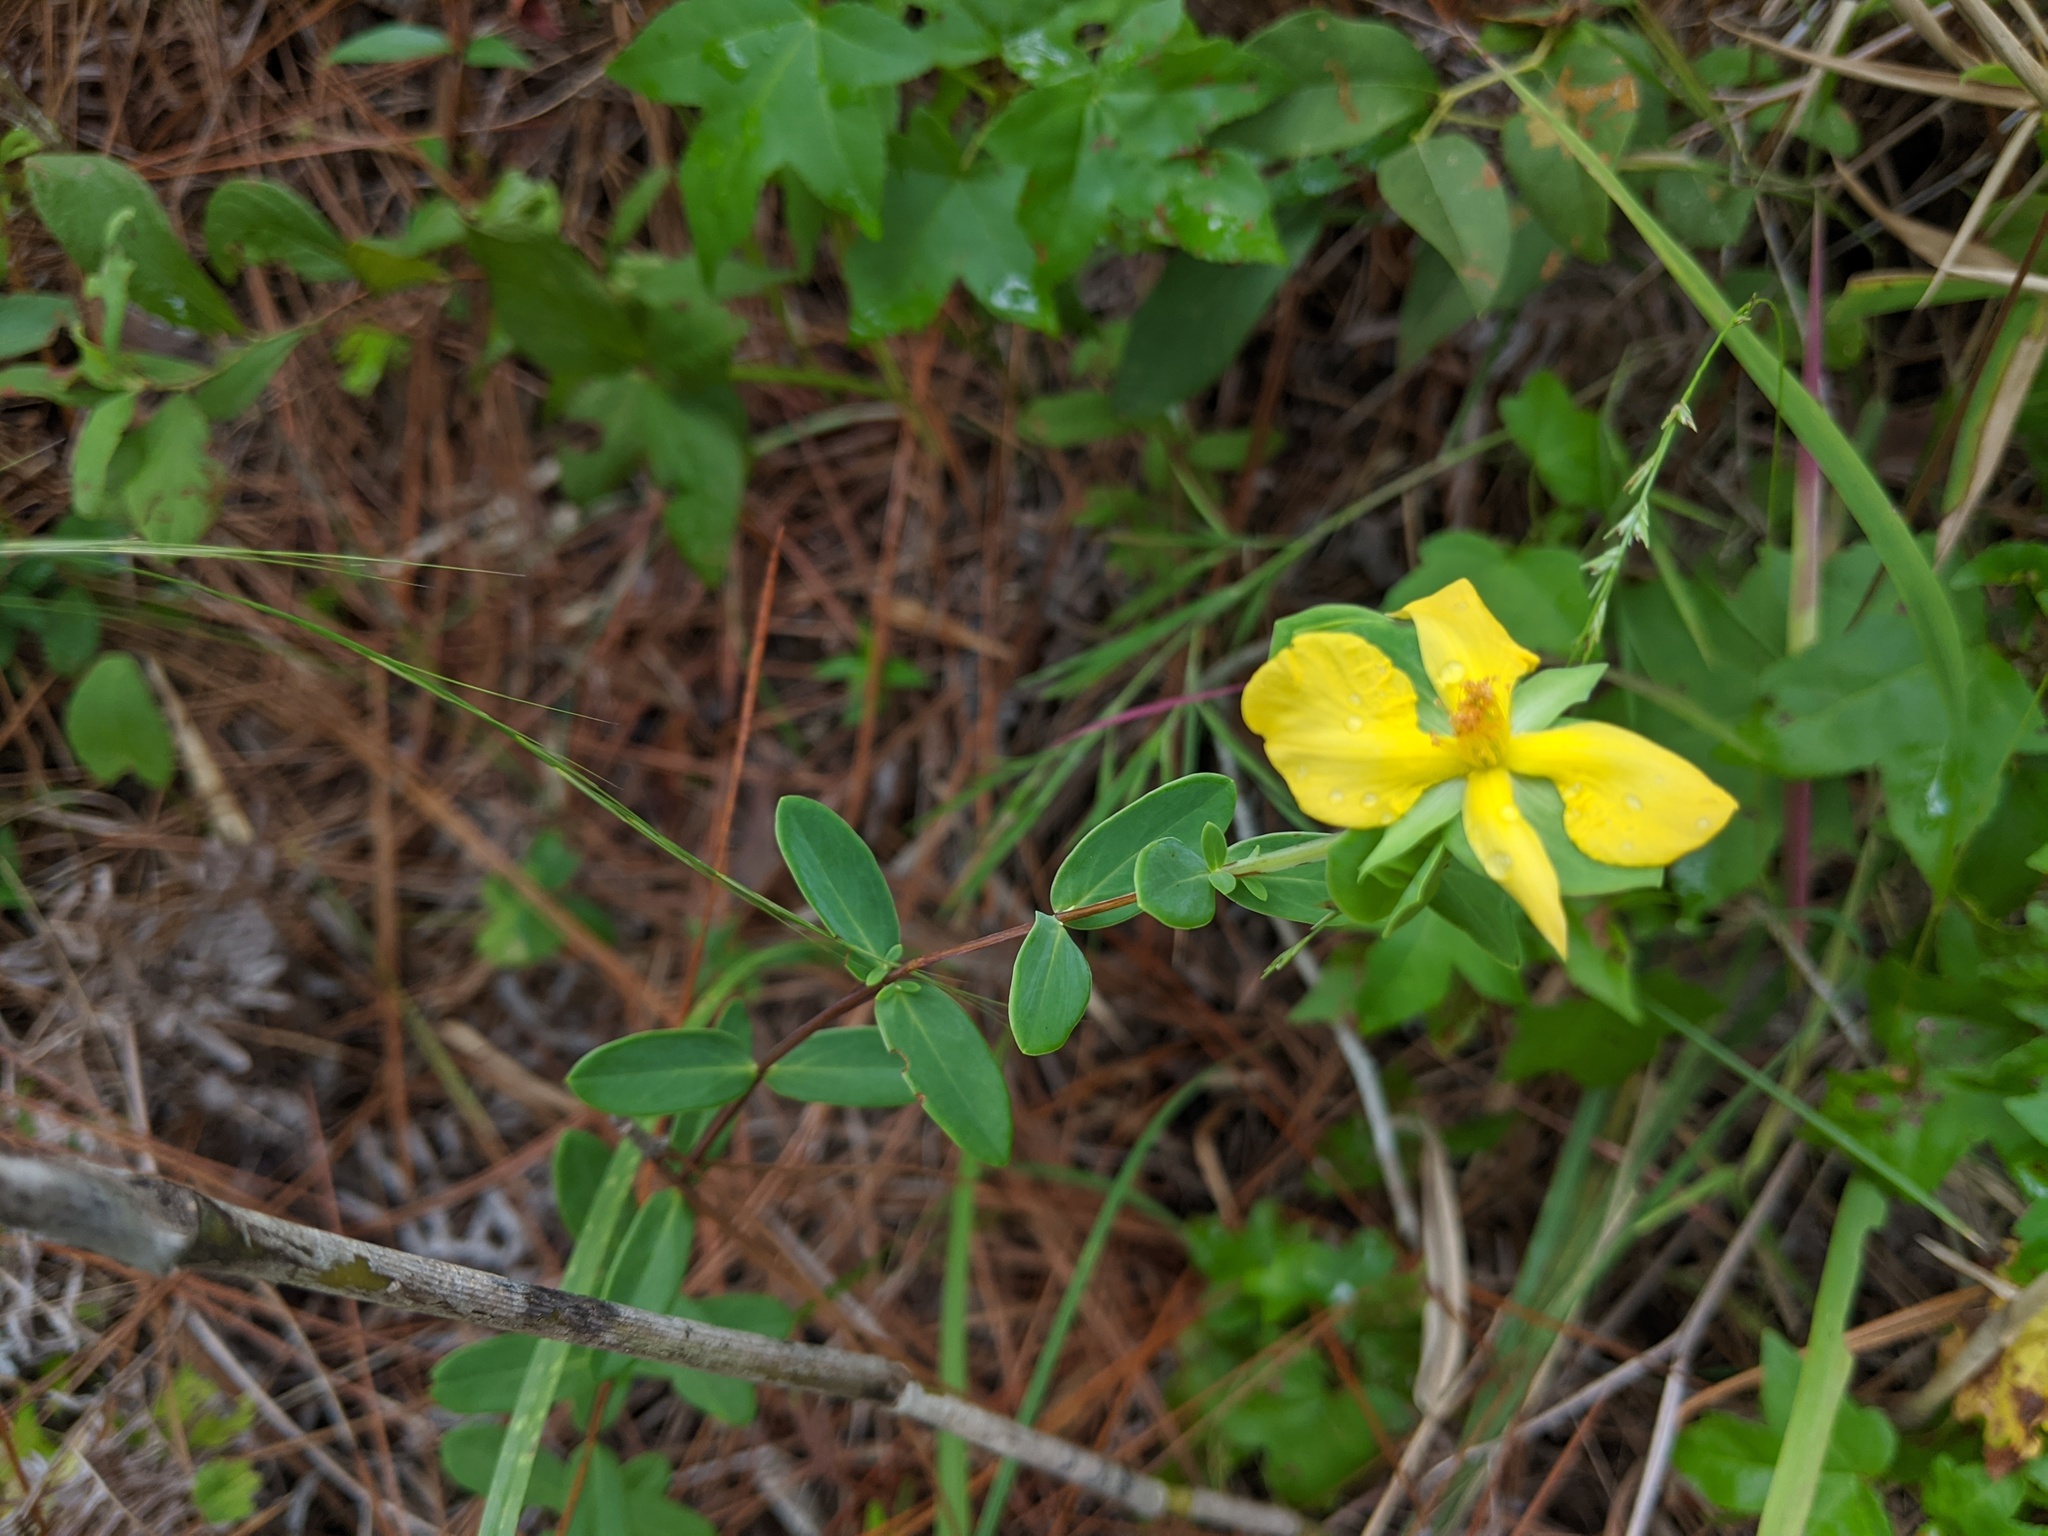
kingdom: Plantae
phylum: Tracheophyta
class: Magnoliopsida
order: Malpighiales
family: Hypericaceae
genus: Hypericum
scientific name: Hypericum crux-andreae
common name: St.-peter's-wort
